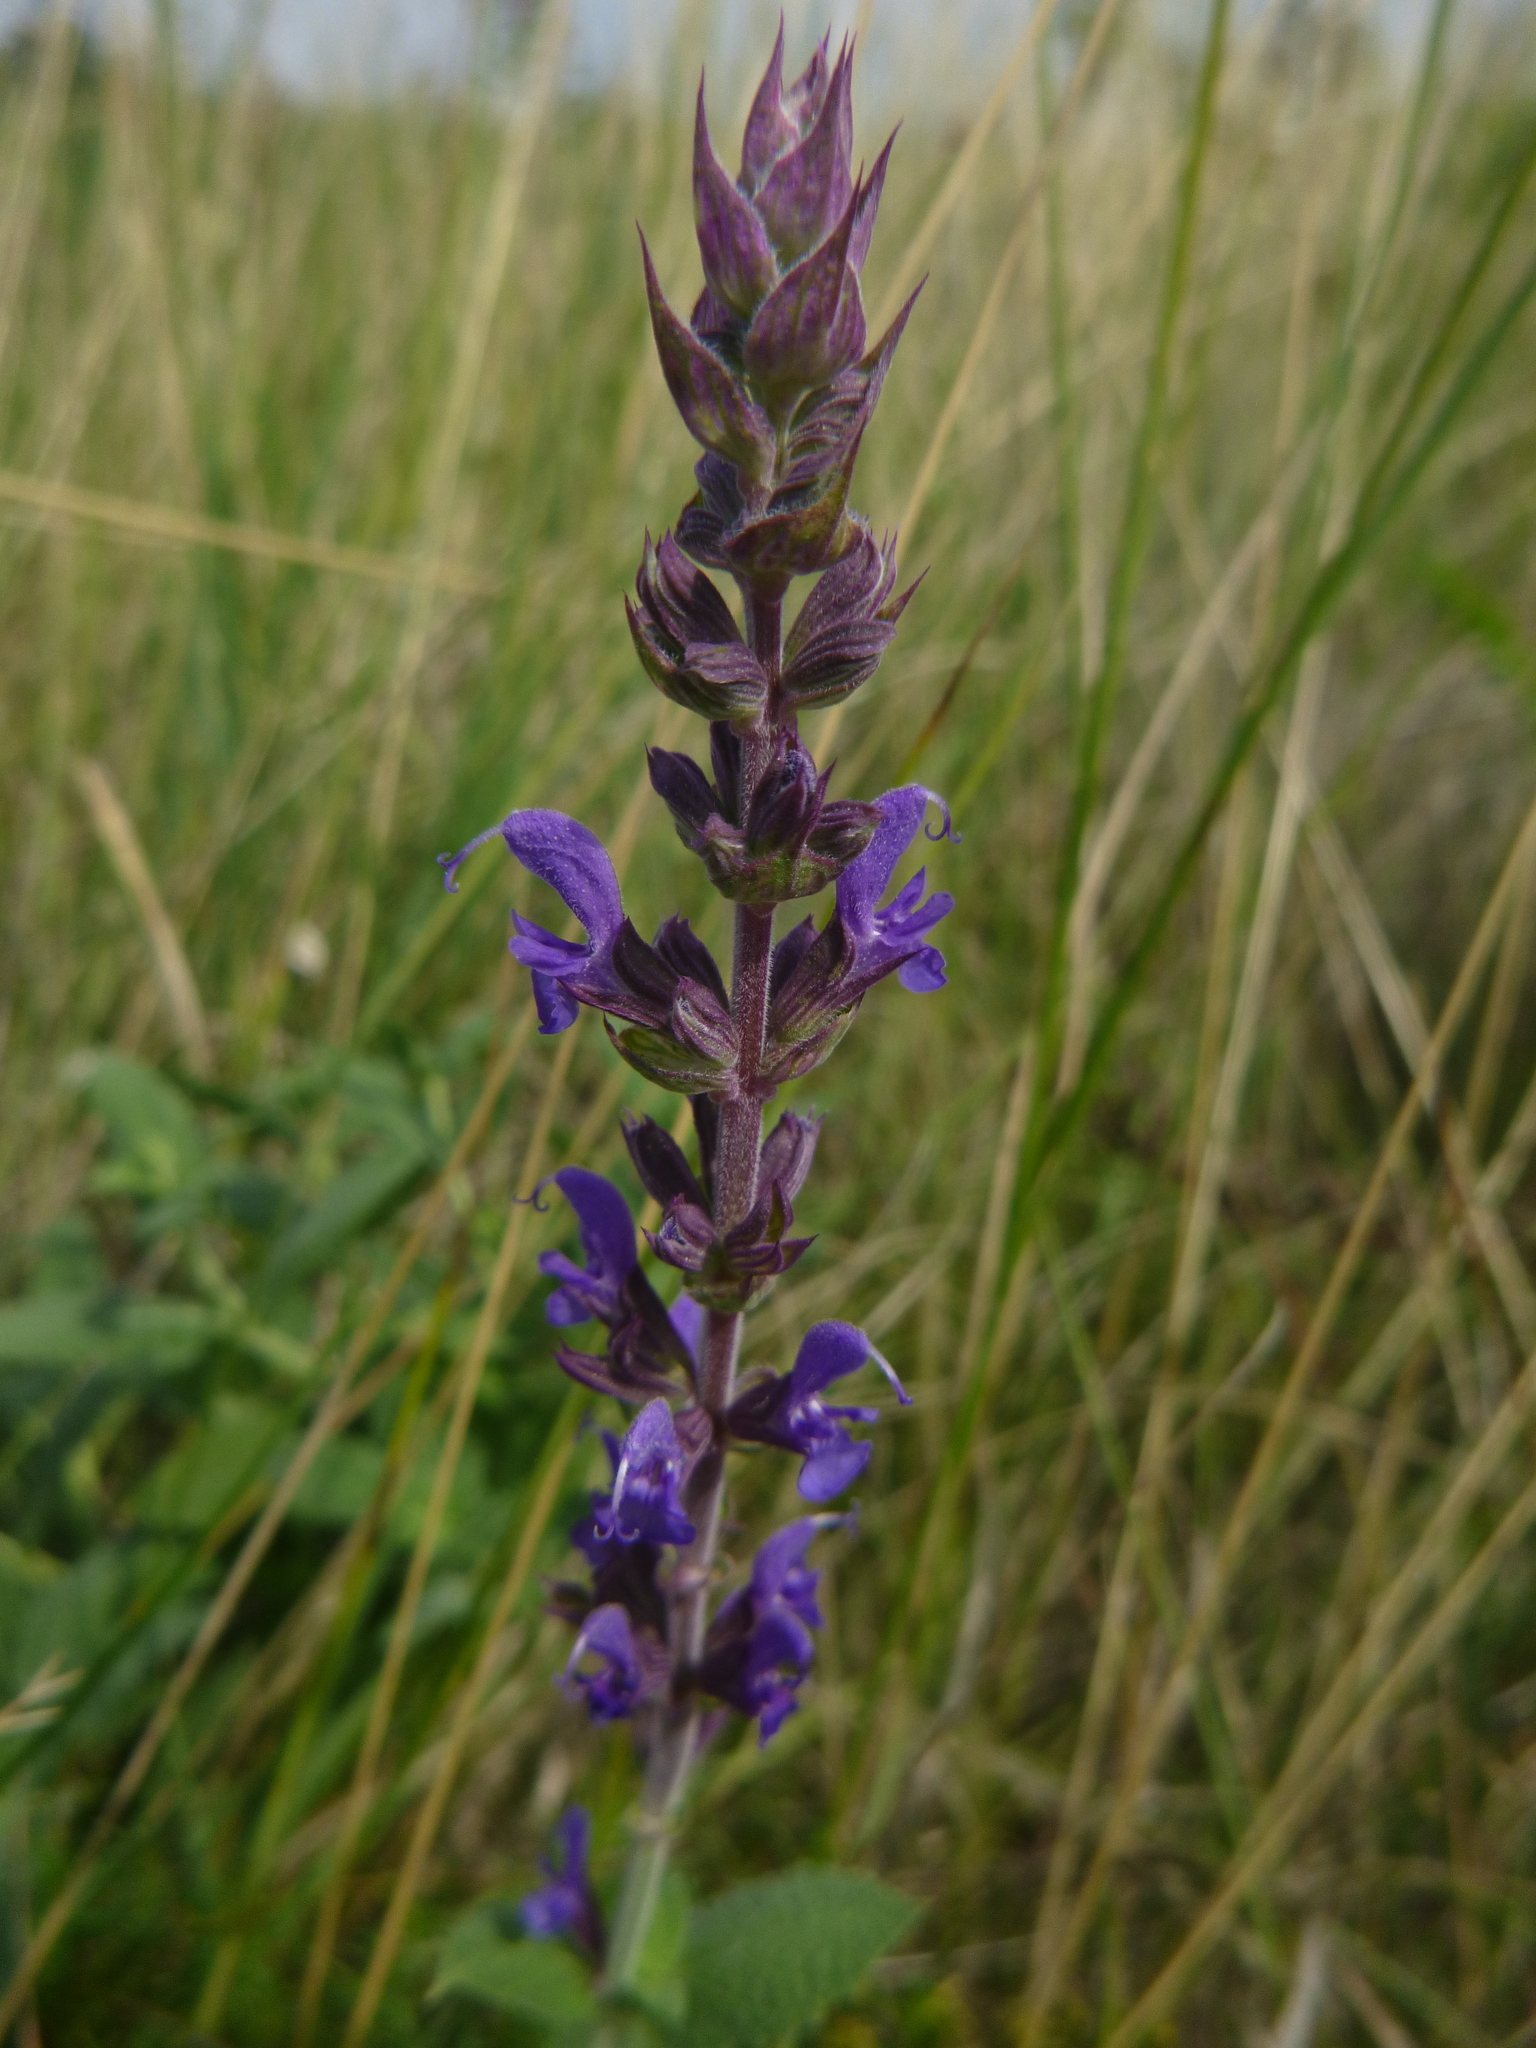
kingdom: Plantae
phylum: Tracheophyta
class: Magnoliopsida
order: Lamiales
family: Lamiaceae
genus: Salvia
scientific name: Salvia nemorosa
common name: Balkan clary
